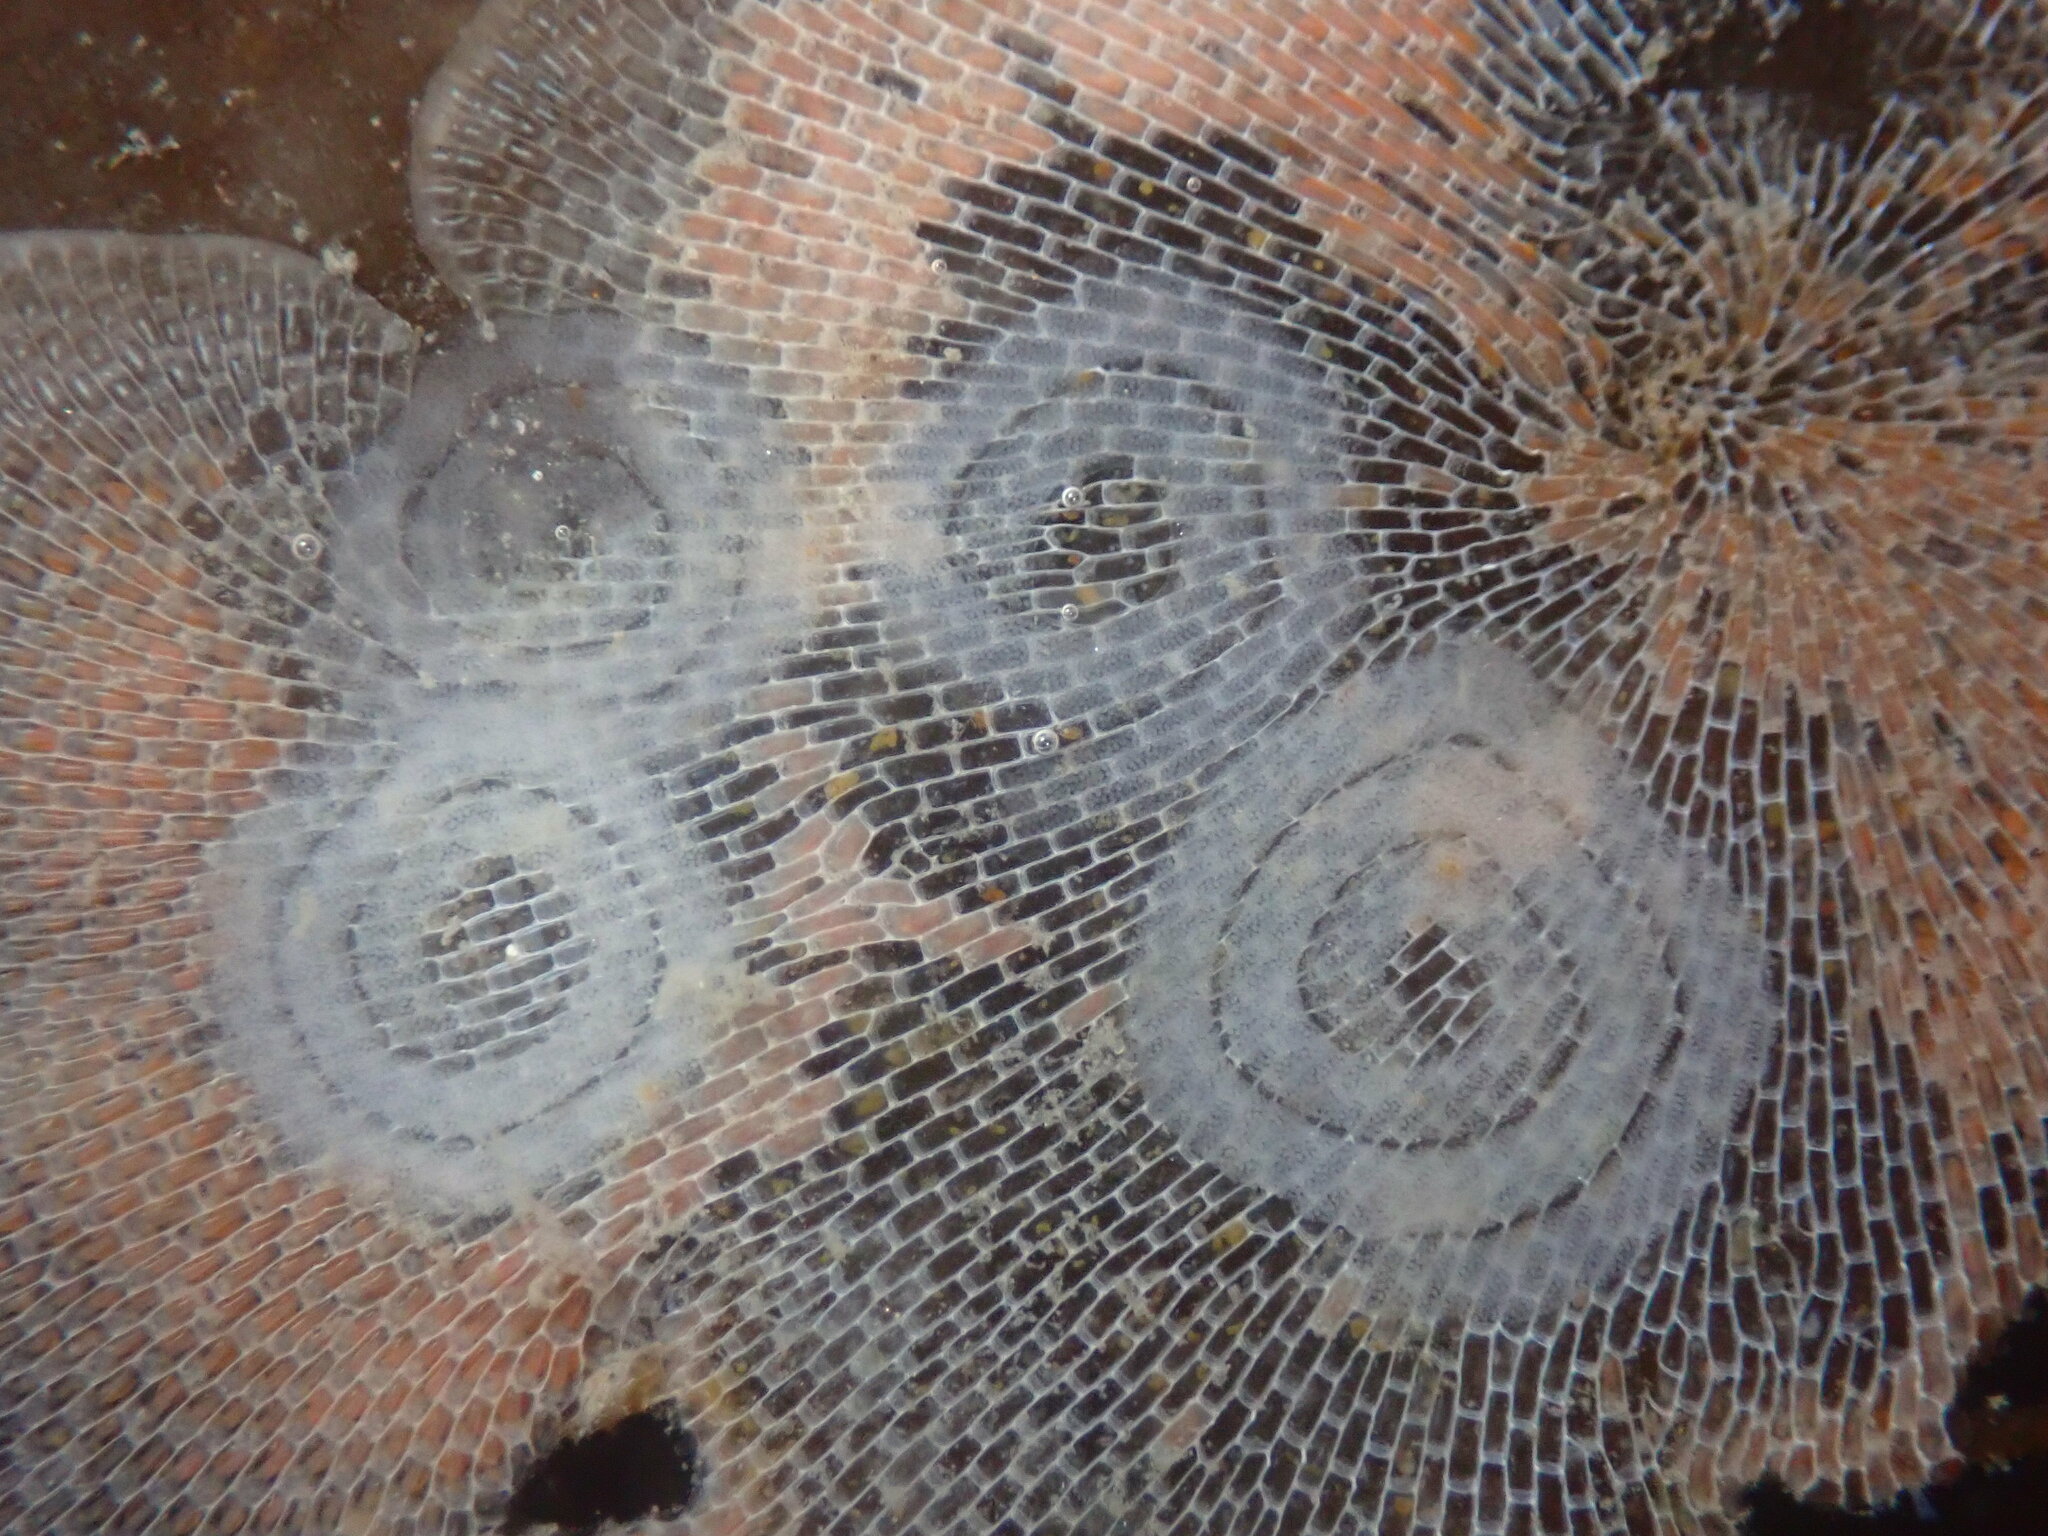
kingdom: Animalia
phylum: Mollusca
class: Gastropoda
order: Nudibranchia
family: Corambidae
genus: Corambe
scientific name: Corambe pacifica
